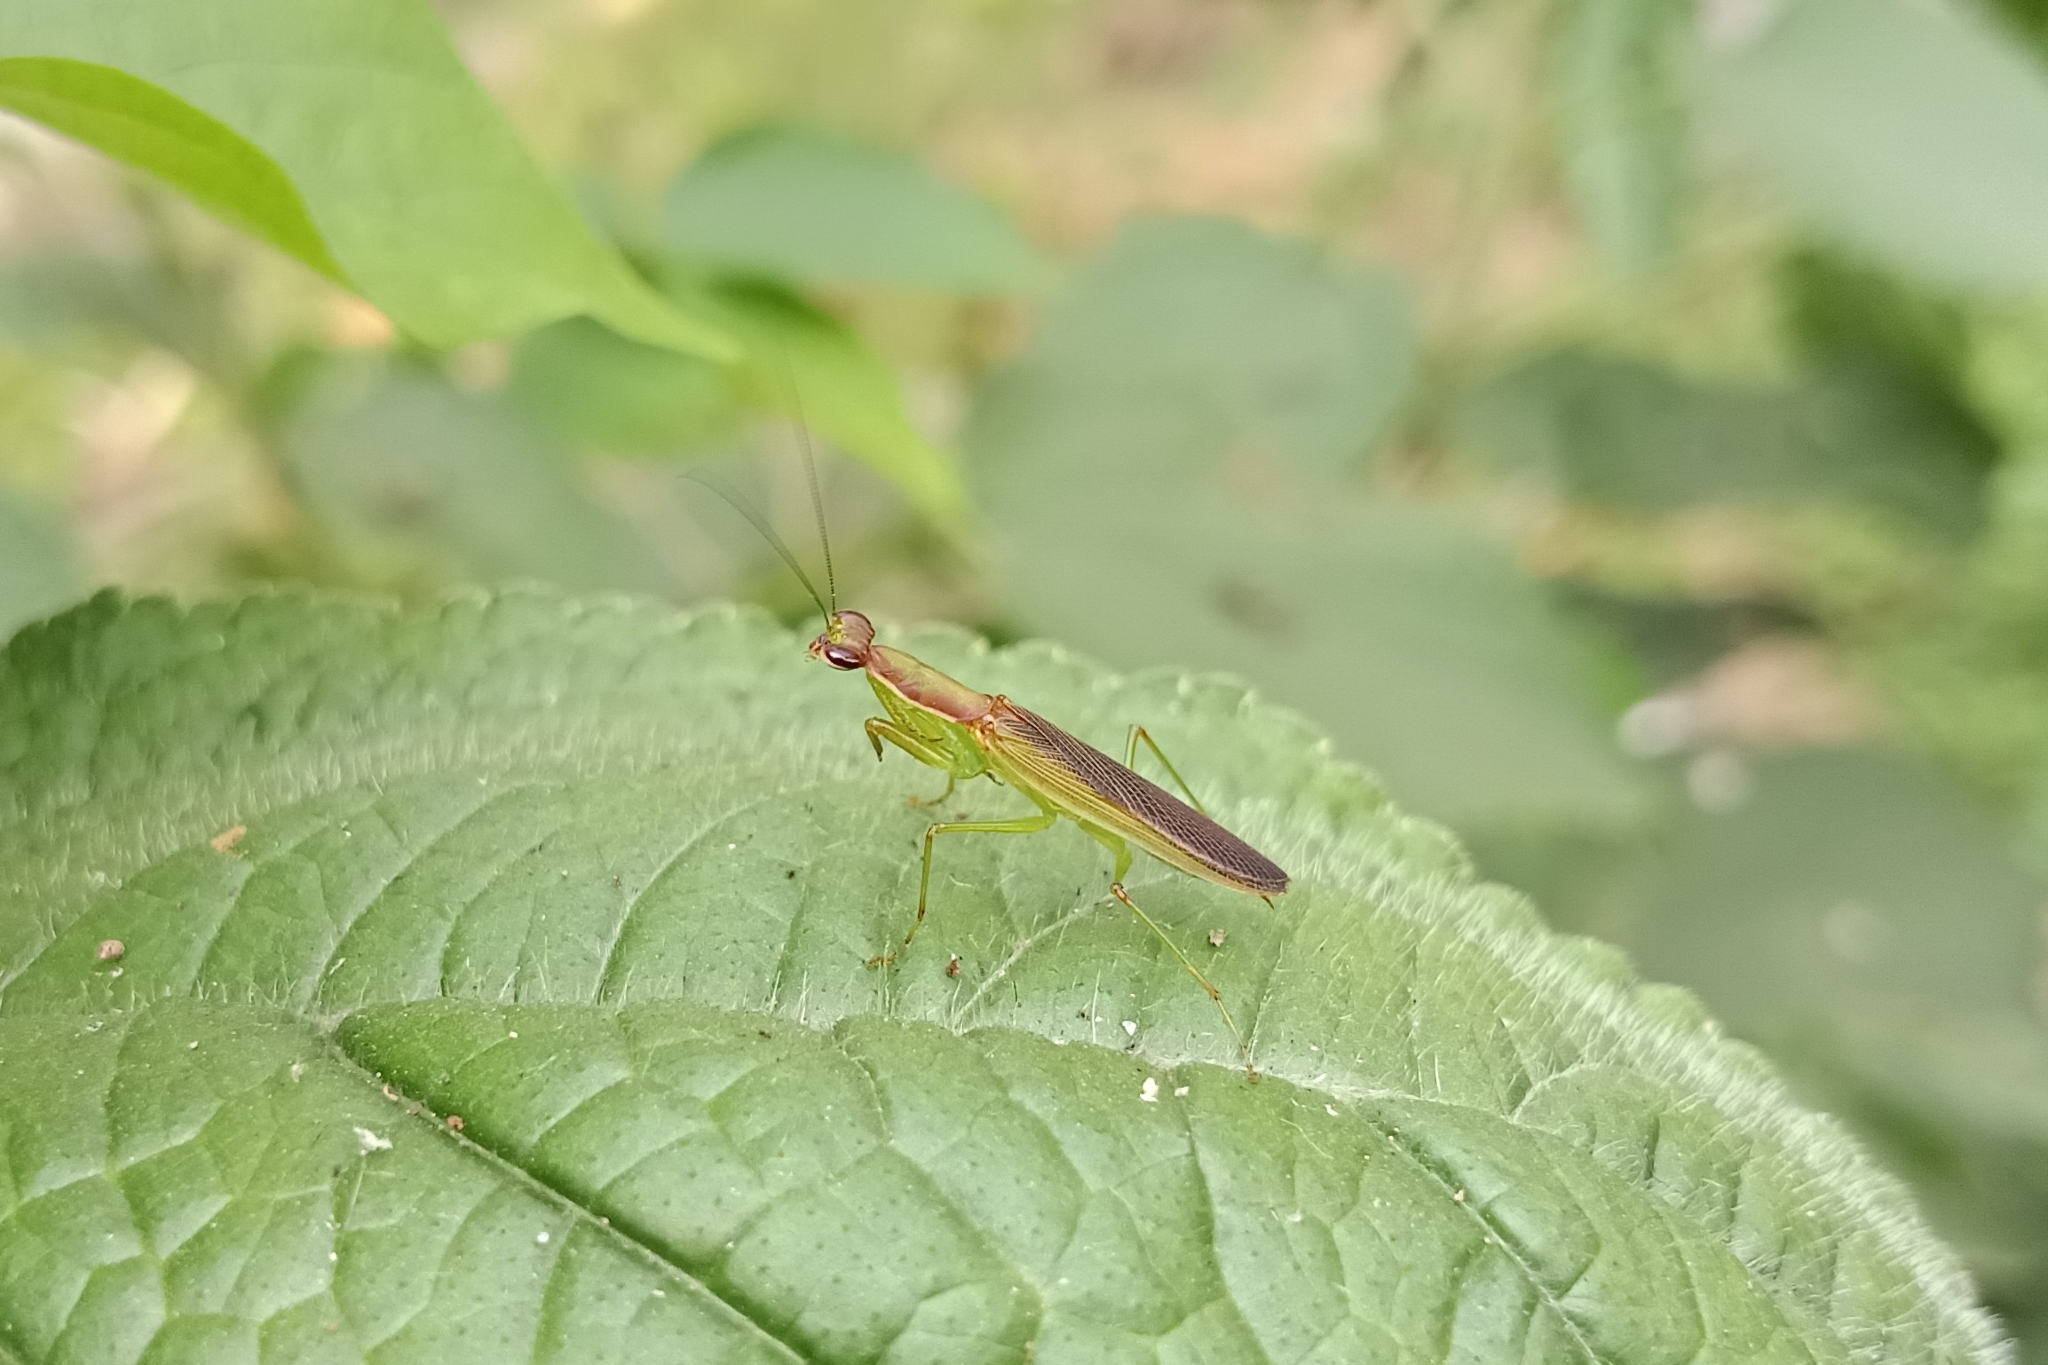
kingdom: Animalia
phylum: Arthropoda
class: Insecta
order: Mantodea
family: Hymenopodidae
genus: Odontomantis
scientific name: Odontomantis planiceps
